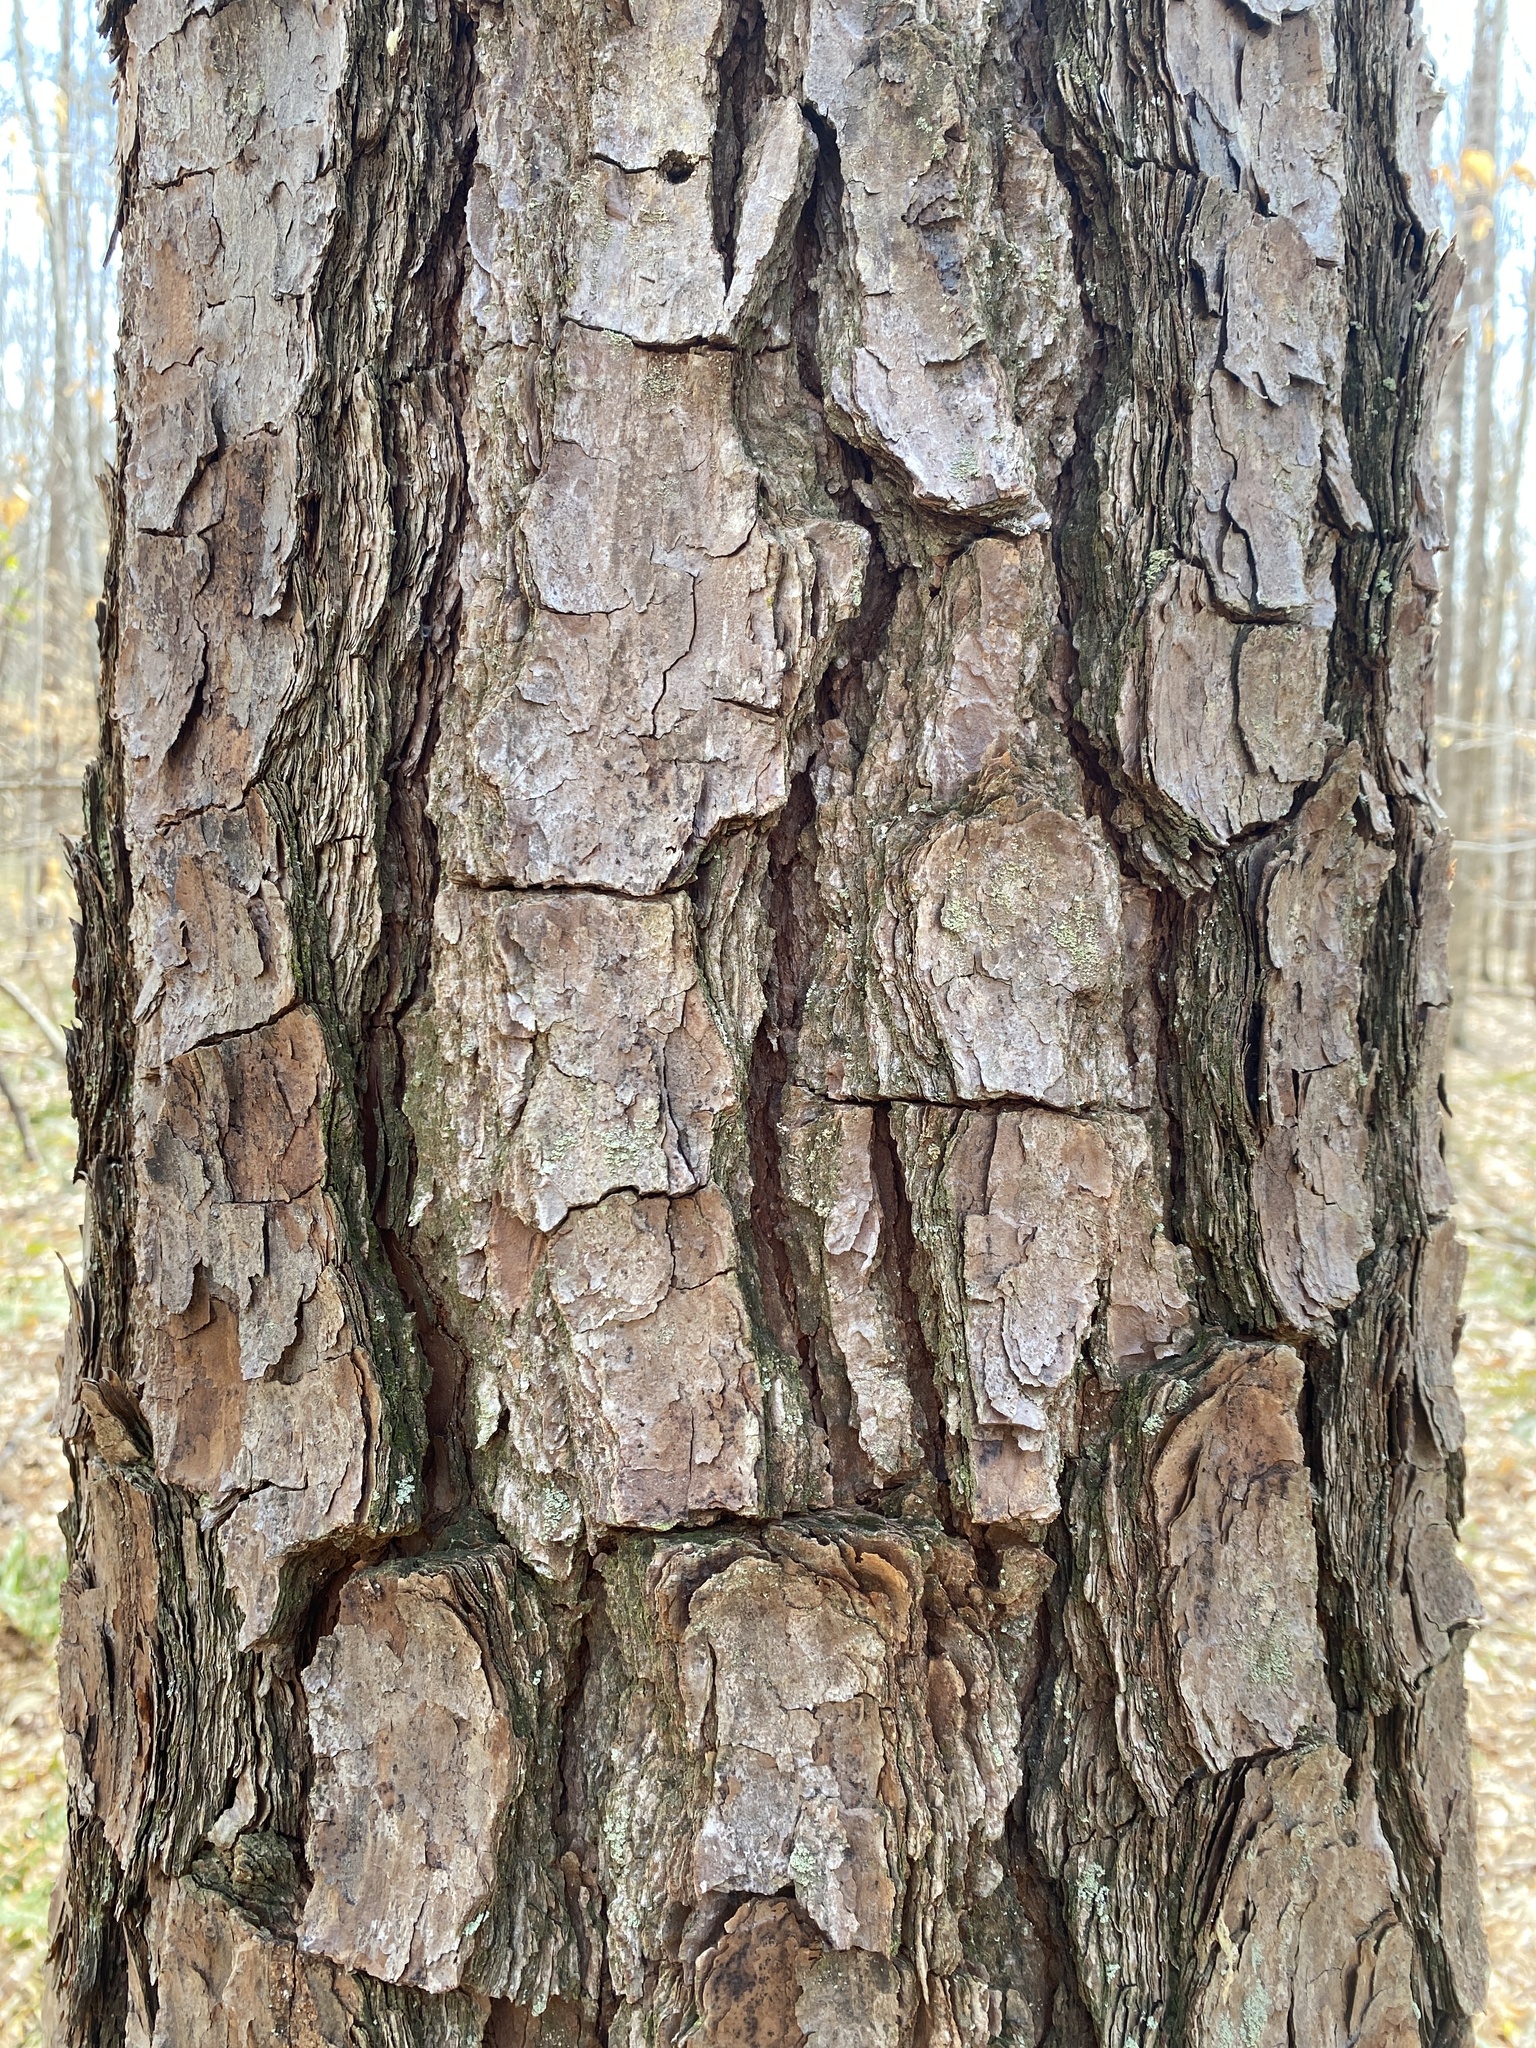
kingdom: Plantae
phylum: Tracheophyta
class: Pinopsida
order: Pinales
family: Pinaceae
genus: Pinus
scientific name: Pinus taeda
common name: Loblolly pine
